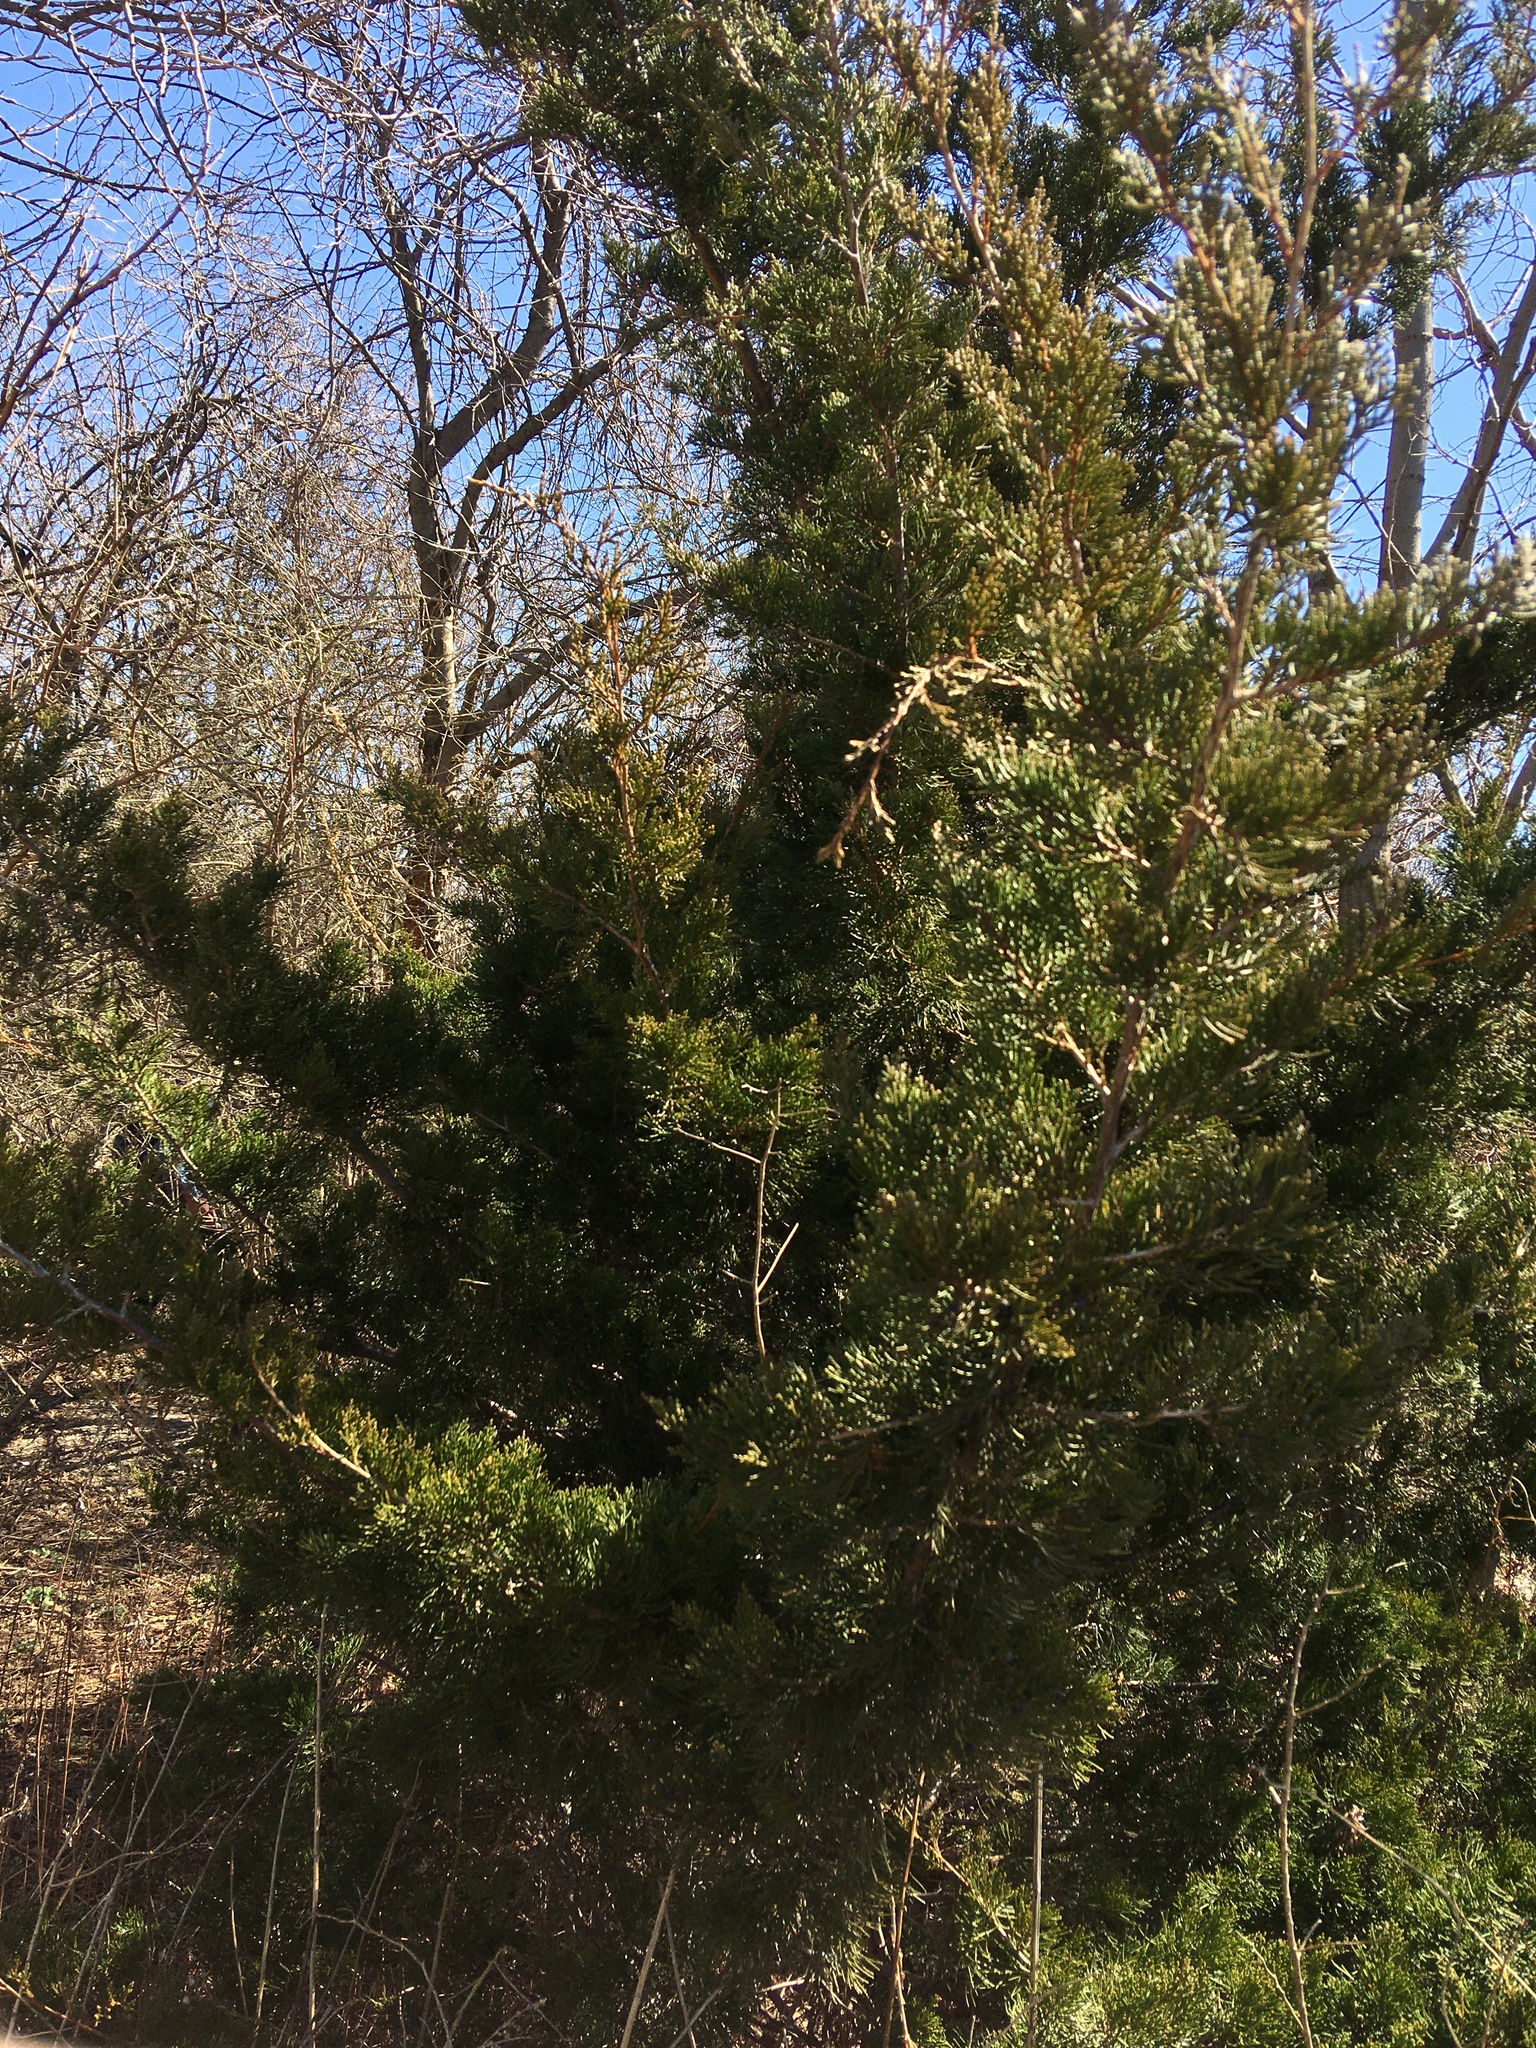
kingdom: Plantae
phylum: Tracheophyta
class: Pinopsida
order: Pinales
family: Cupressaceae
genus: Juniperus
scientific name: Juniperus virginiana
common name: Red juniper
